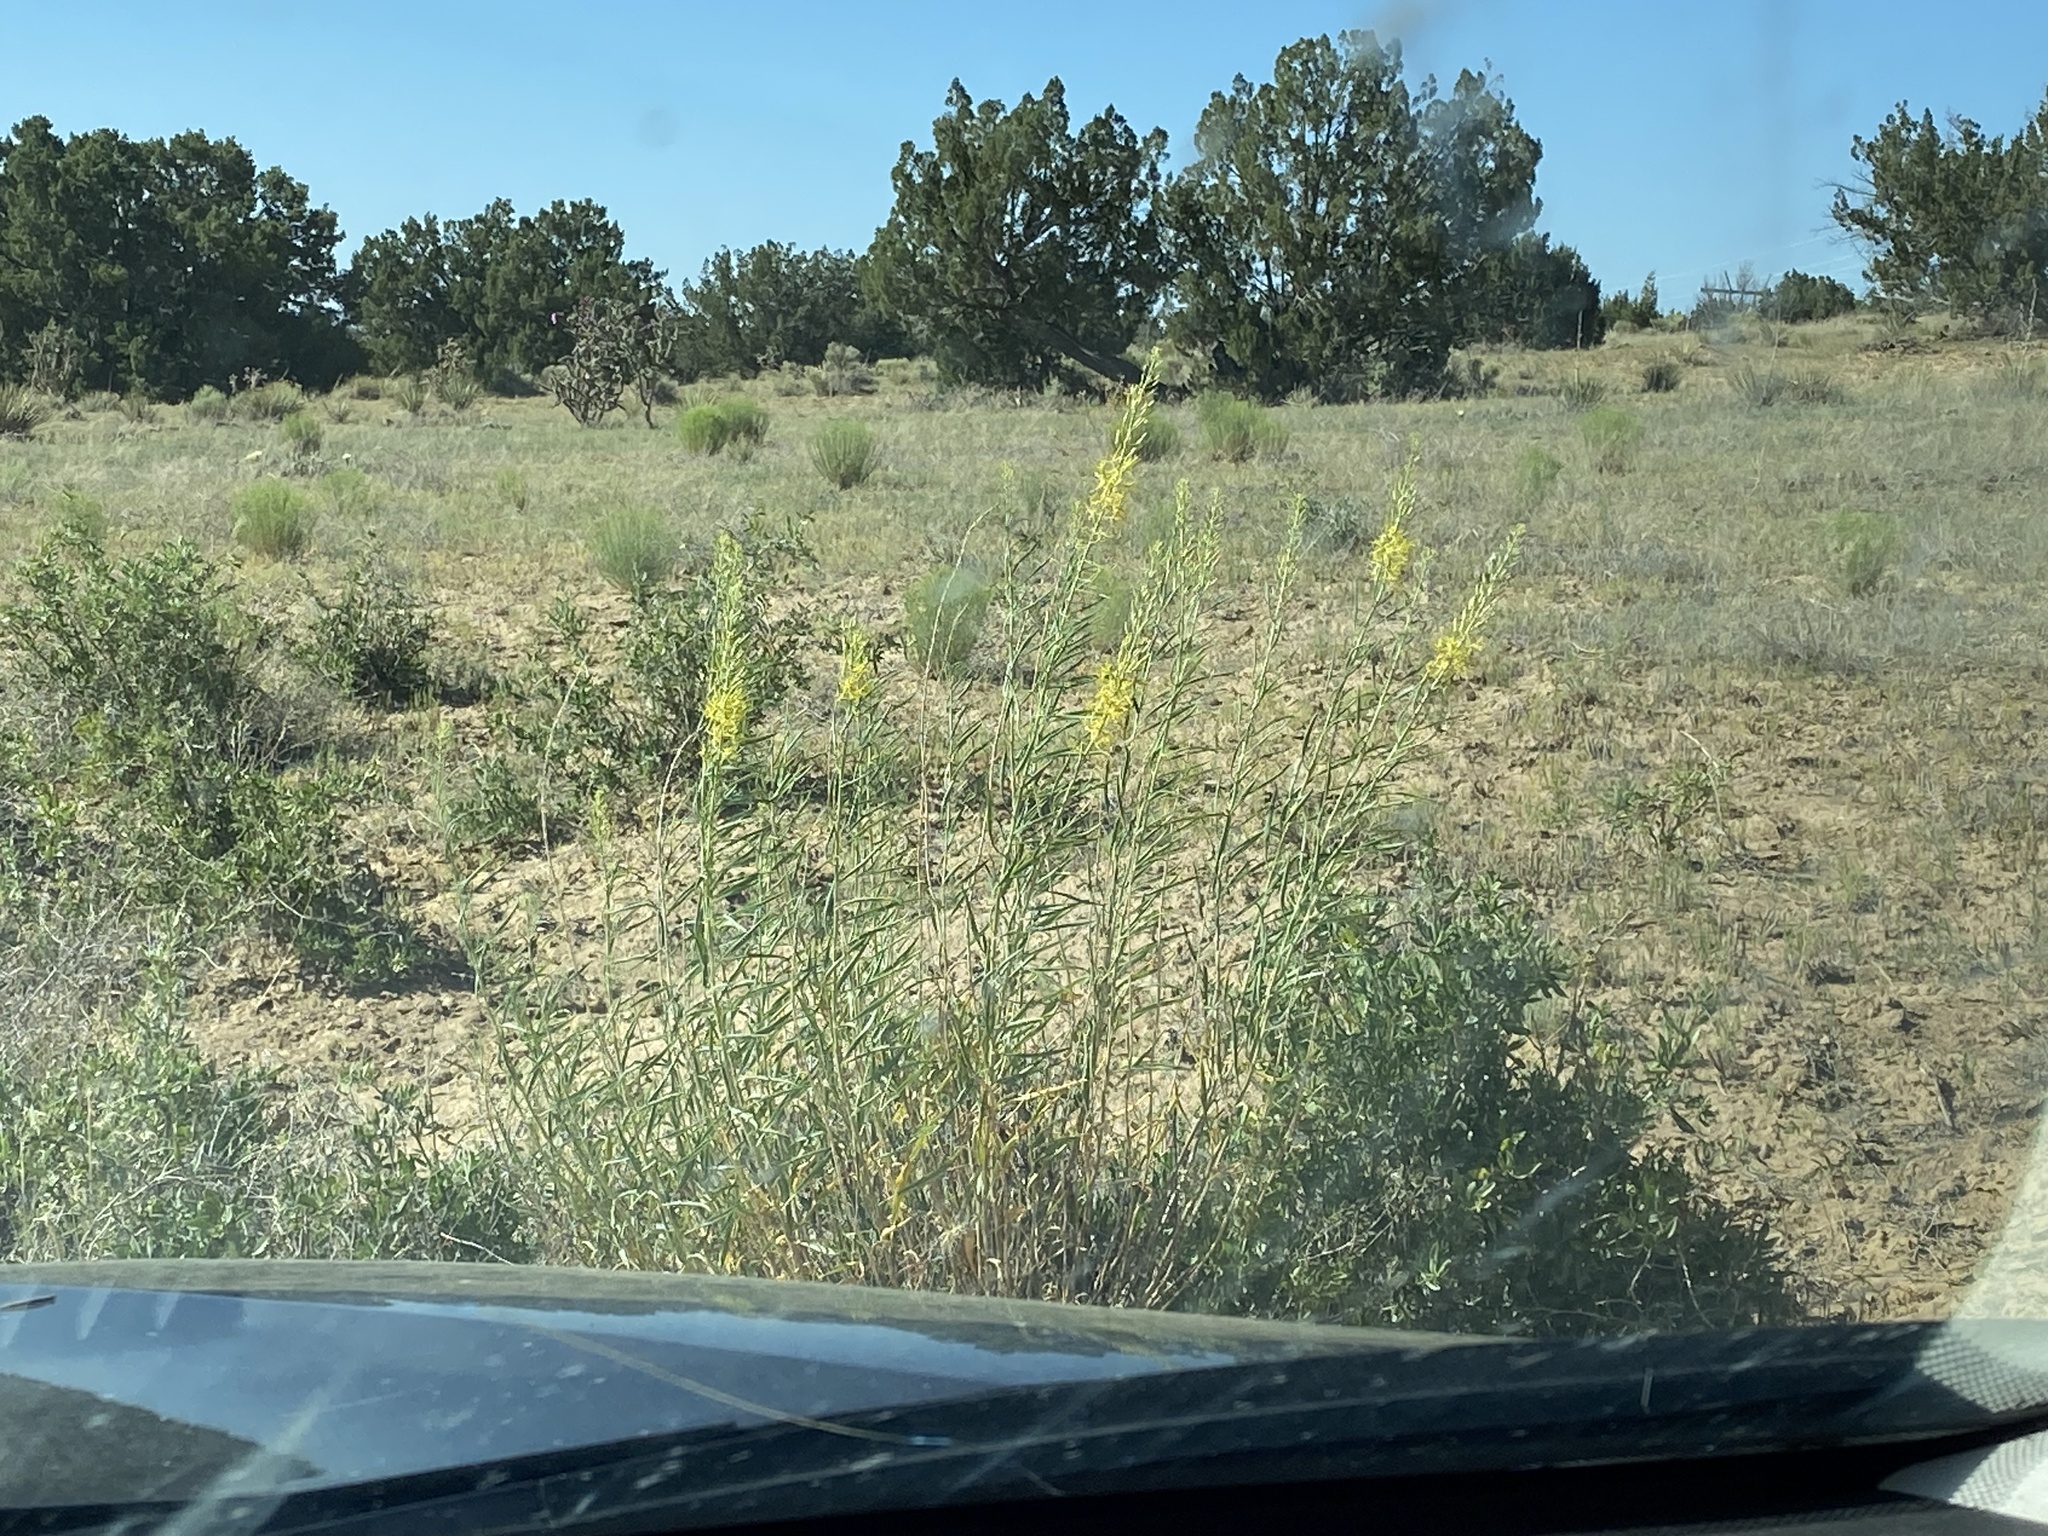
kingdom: Plantae
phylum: Tracheophyta
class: Magnoliopsida
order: Brassicales
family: Brassicaceae
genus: Stanleya
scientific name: Stanleya pinnata
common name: Prince's-plume
